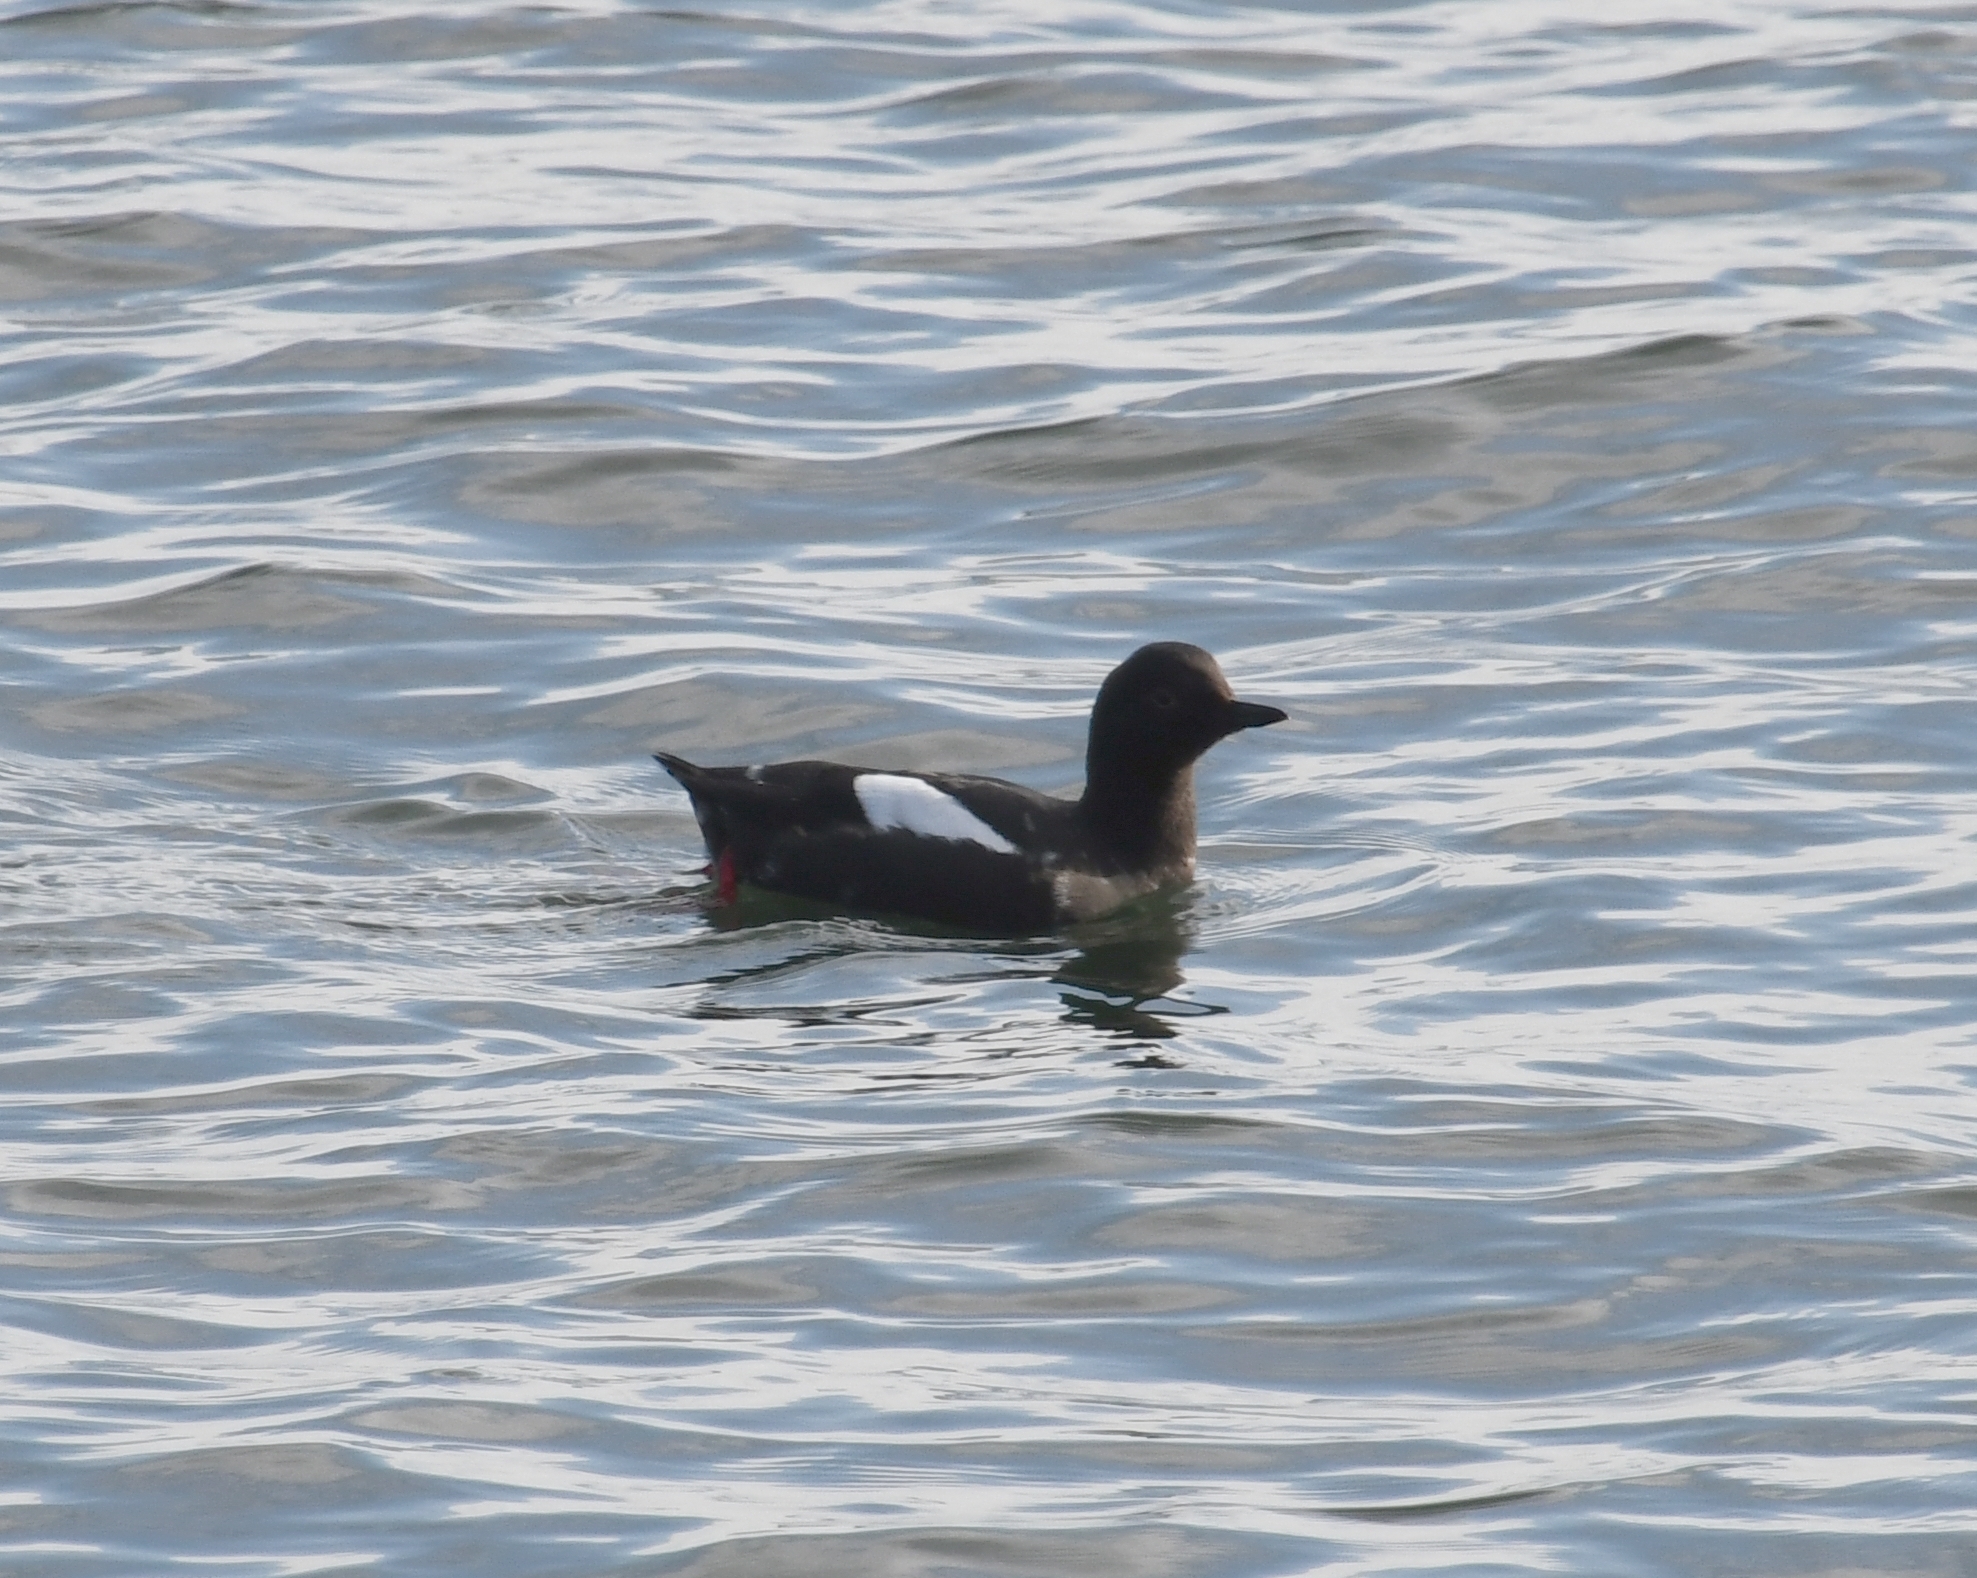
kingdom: Animalia
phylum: Chordata
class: Aves
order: Charadriiformes
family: Alcidae
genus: Cepphus
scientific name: Cepphus columba
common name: Pigeon guillemot
